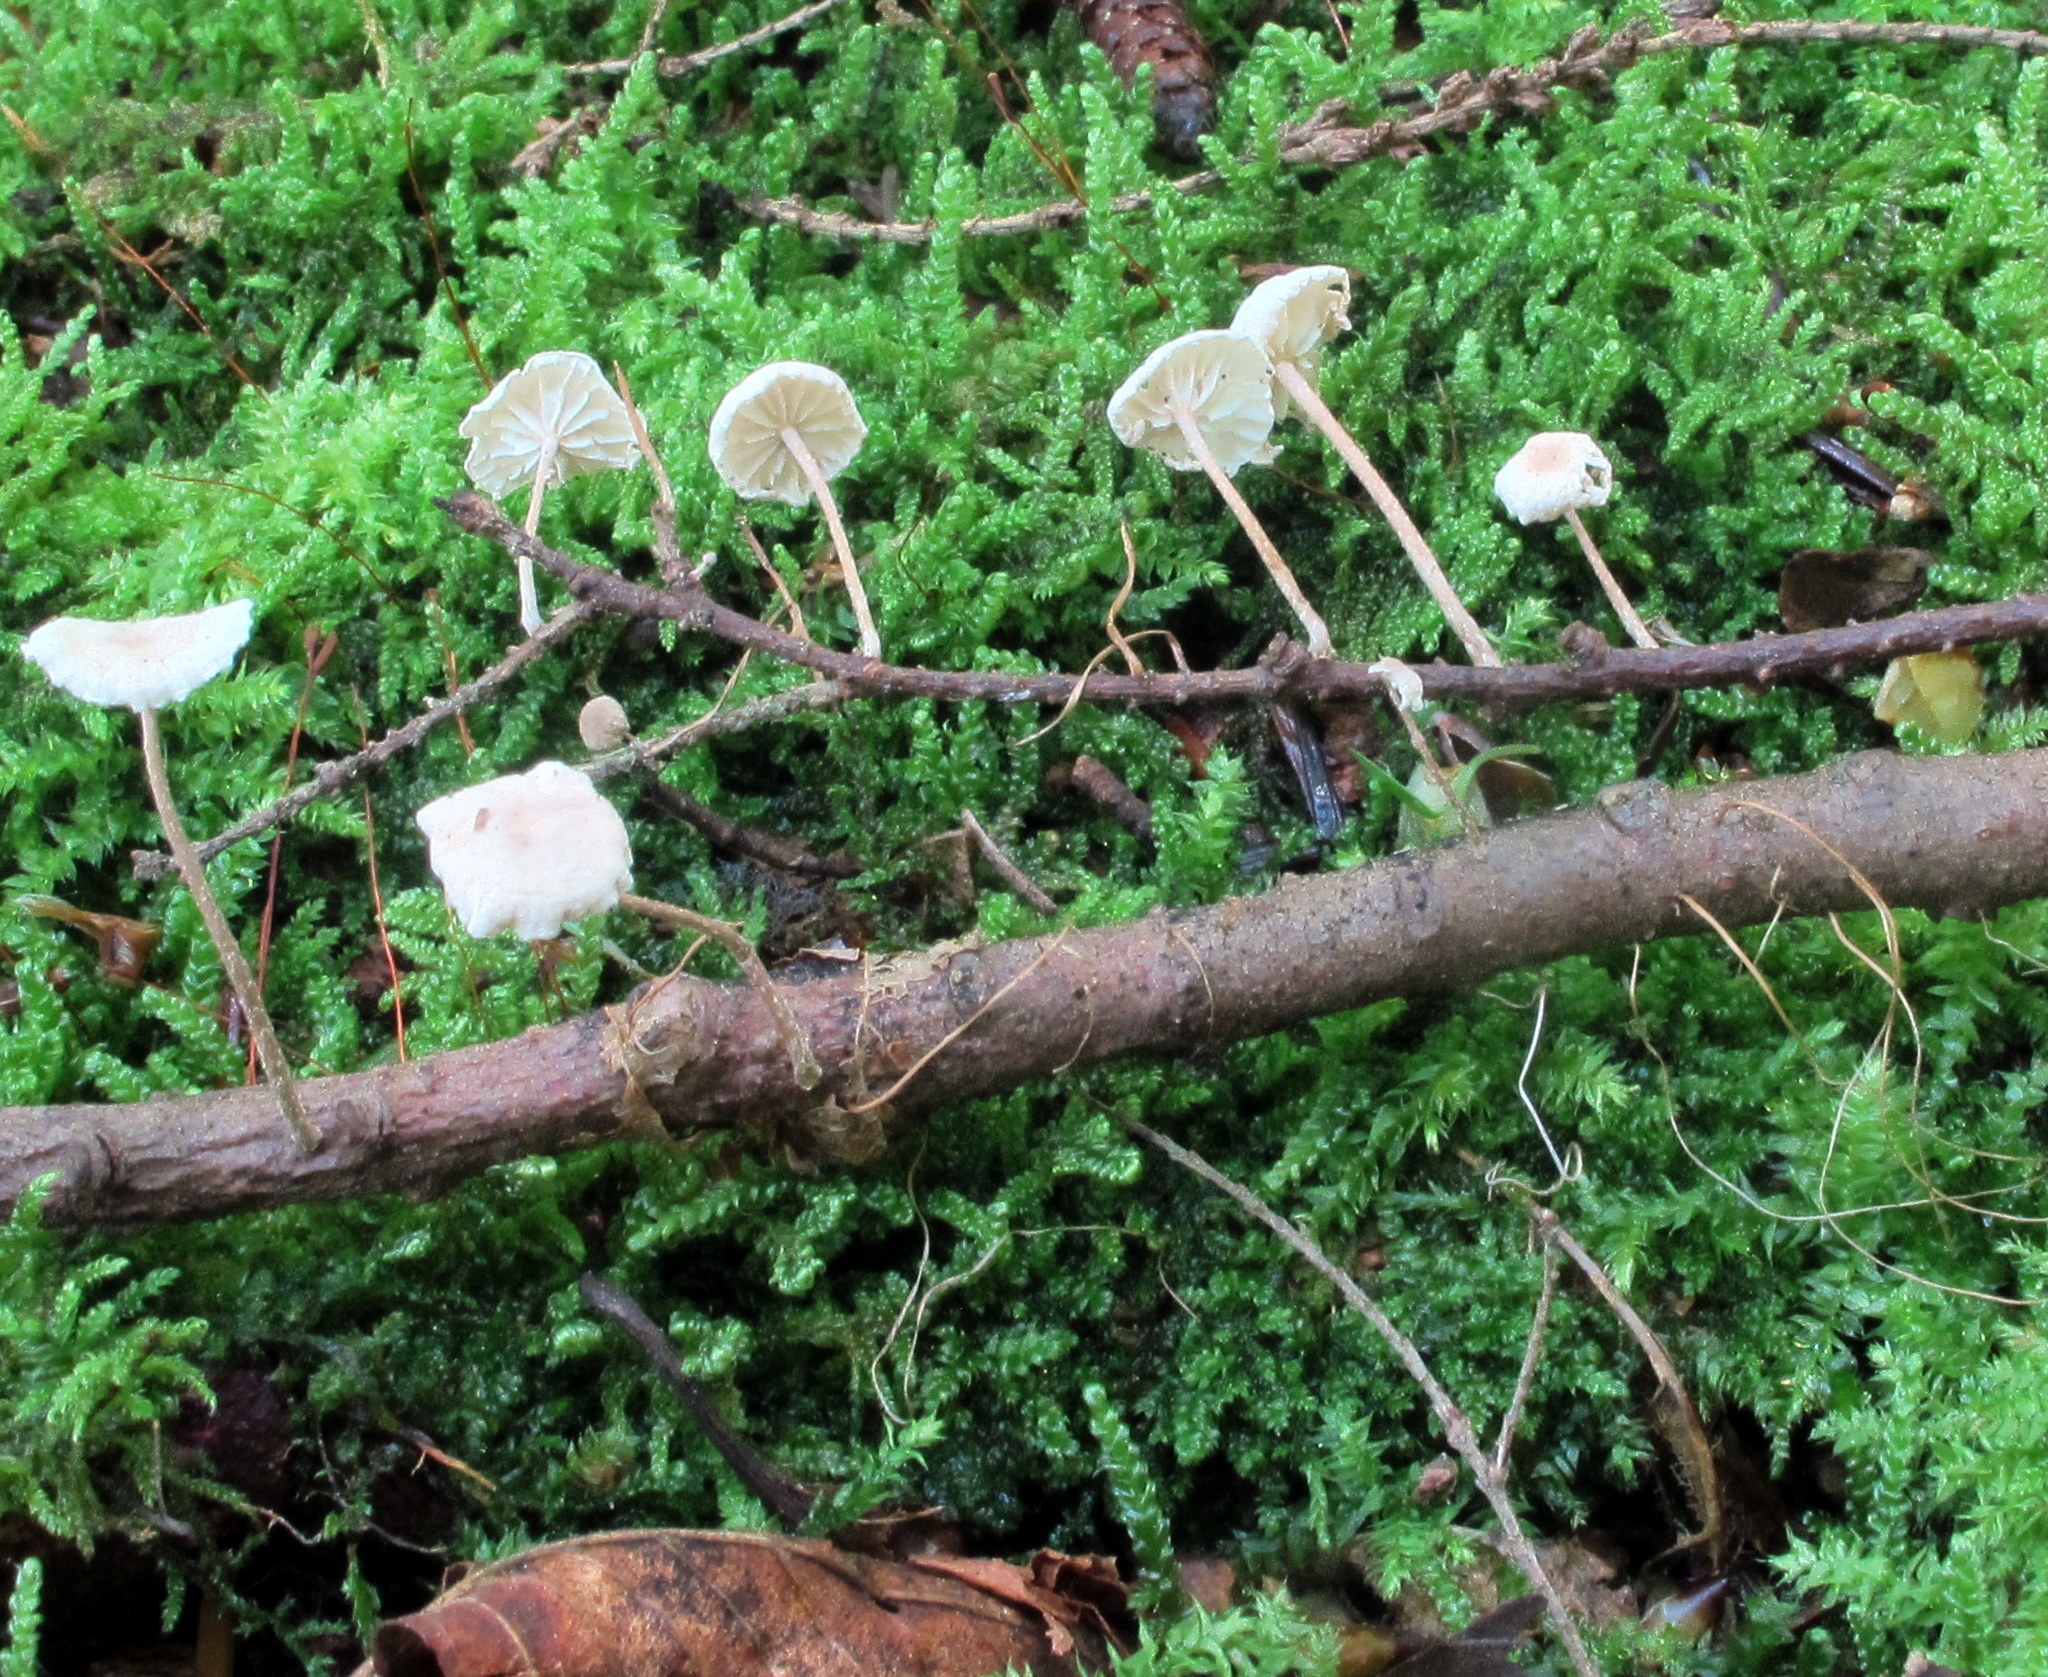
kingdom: Fungi
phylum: Basidiomycota
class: Agaricomycetes
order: Agaricales
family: Omphalotaceae
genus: Mycetinis
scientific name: Mycetinis opacus
